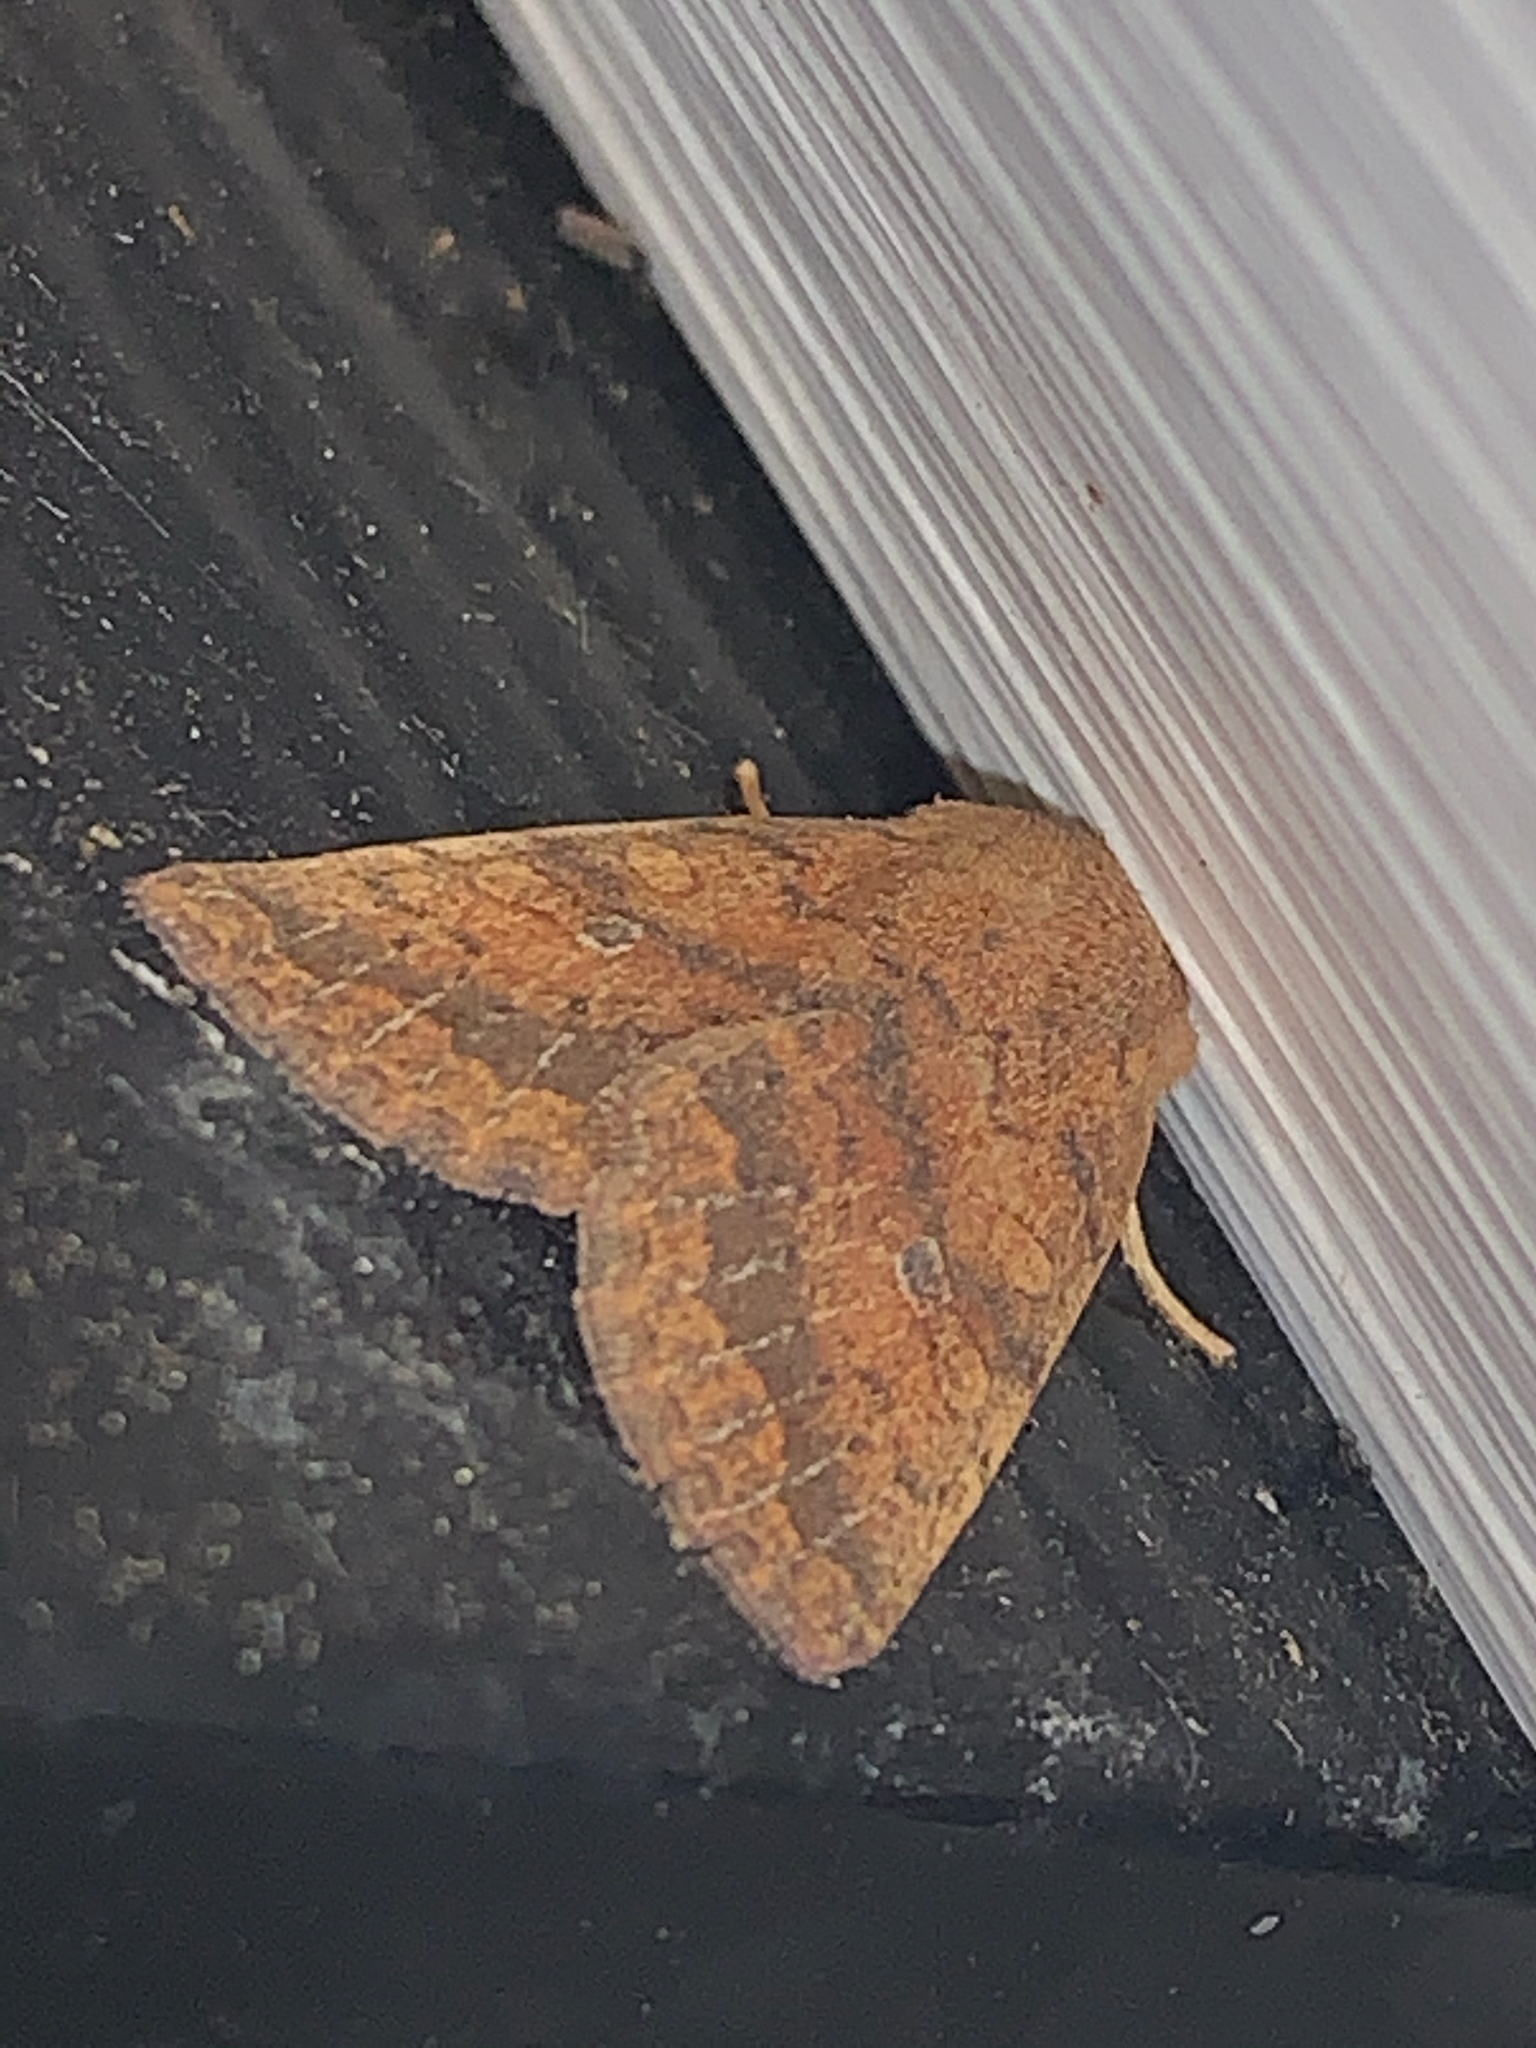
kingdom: Animalia
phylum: Arthropoda
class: Insecta
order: Lepidoptera
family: Noctuidae
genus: Agrochola
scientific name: Agrochola bicolorago
